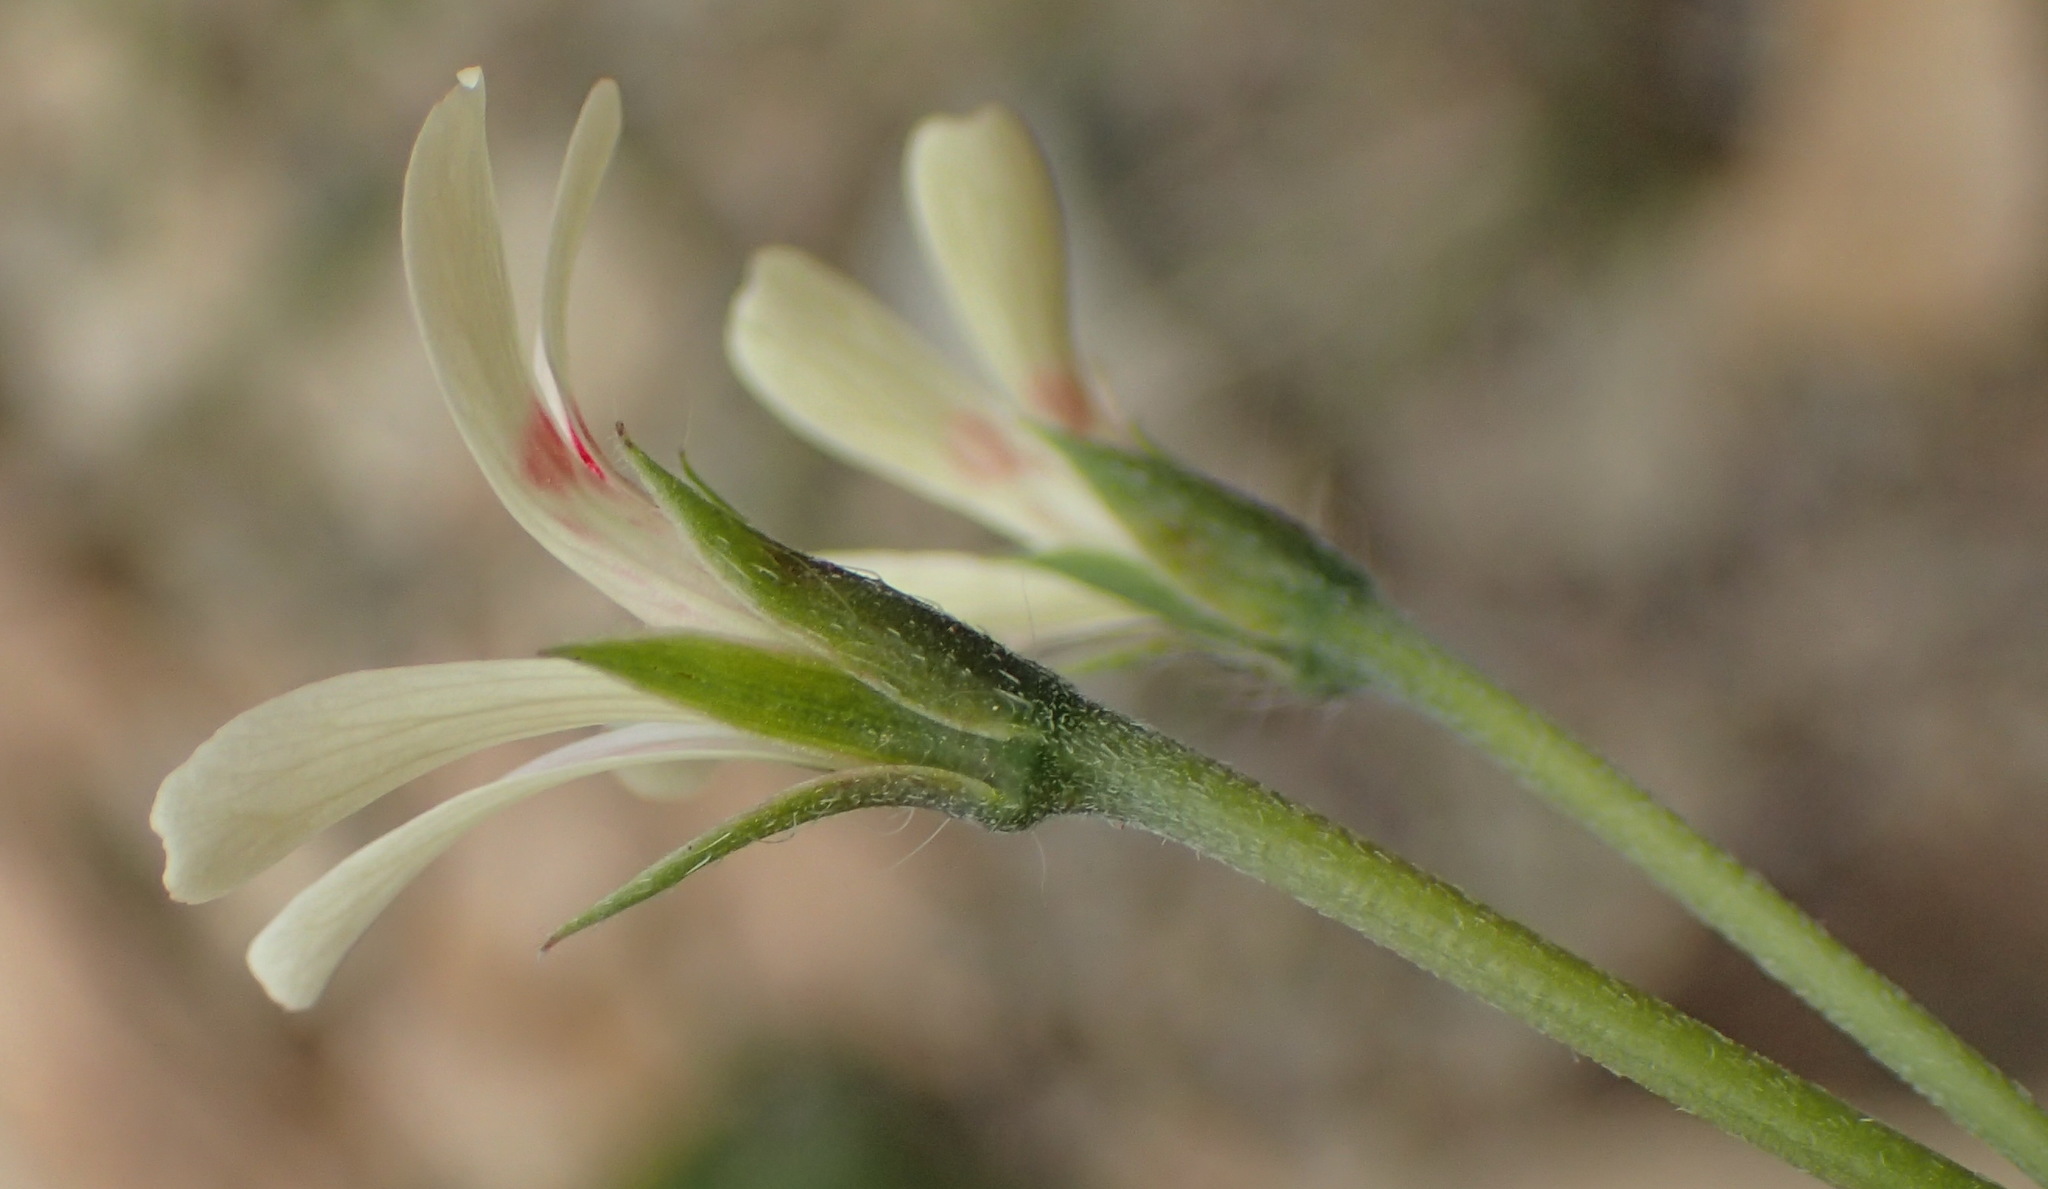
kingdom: Plantae
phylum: Tracheophyta
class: Magnoliopsida
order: Geraniales
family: Geraniaceae
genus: Pelargonium
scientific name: Pelargonium ranunculophyllum
